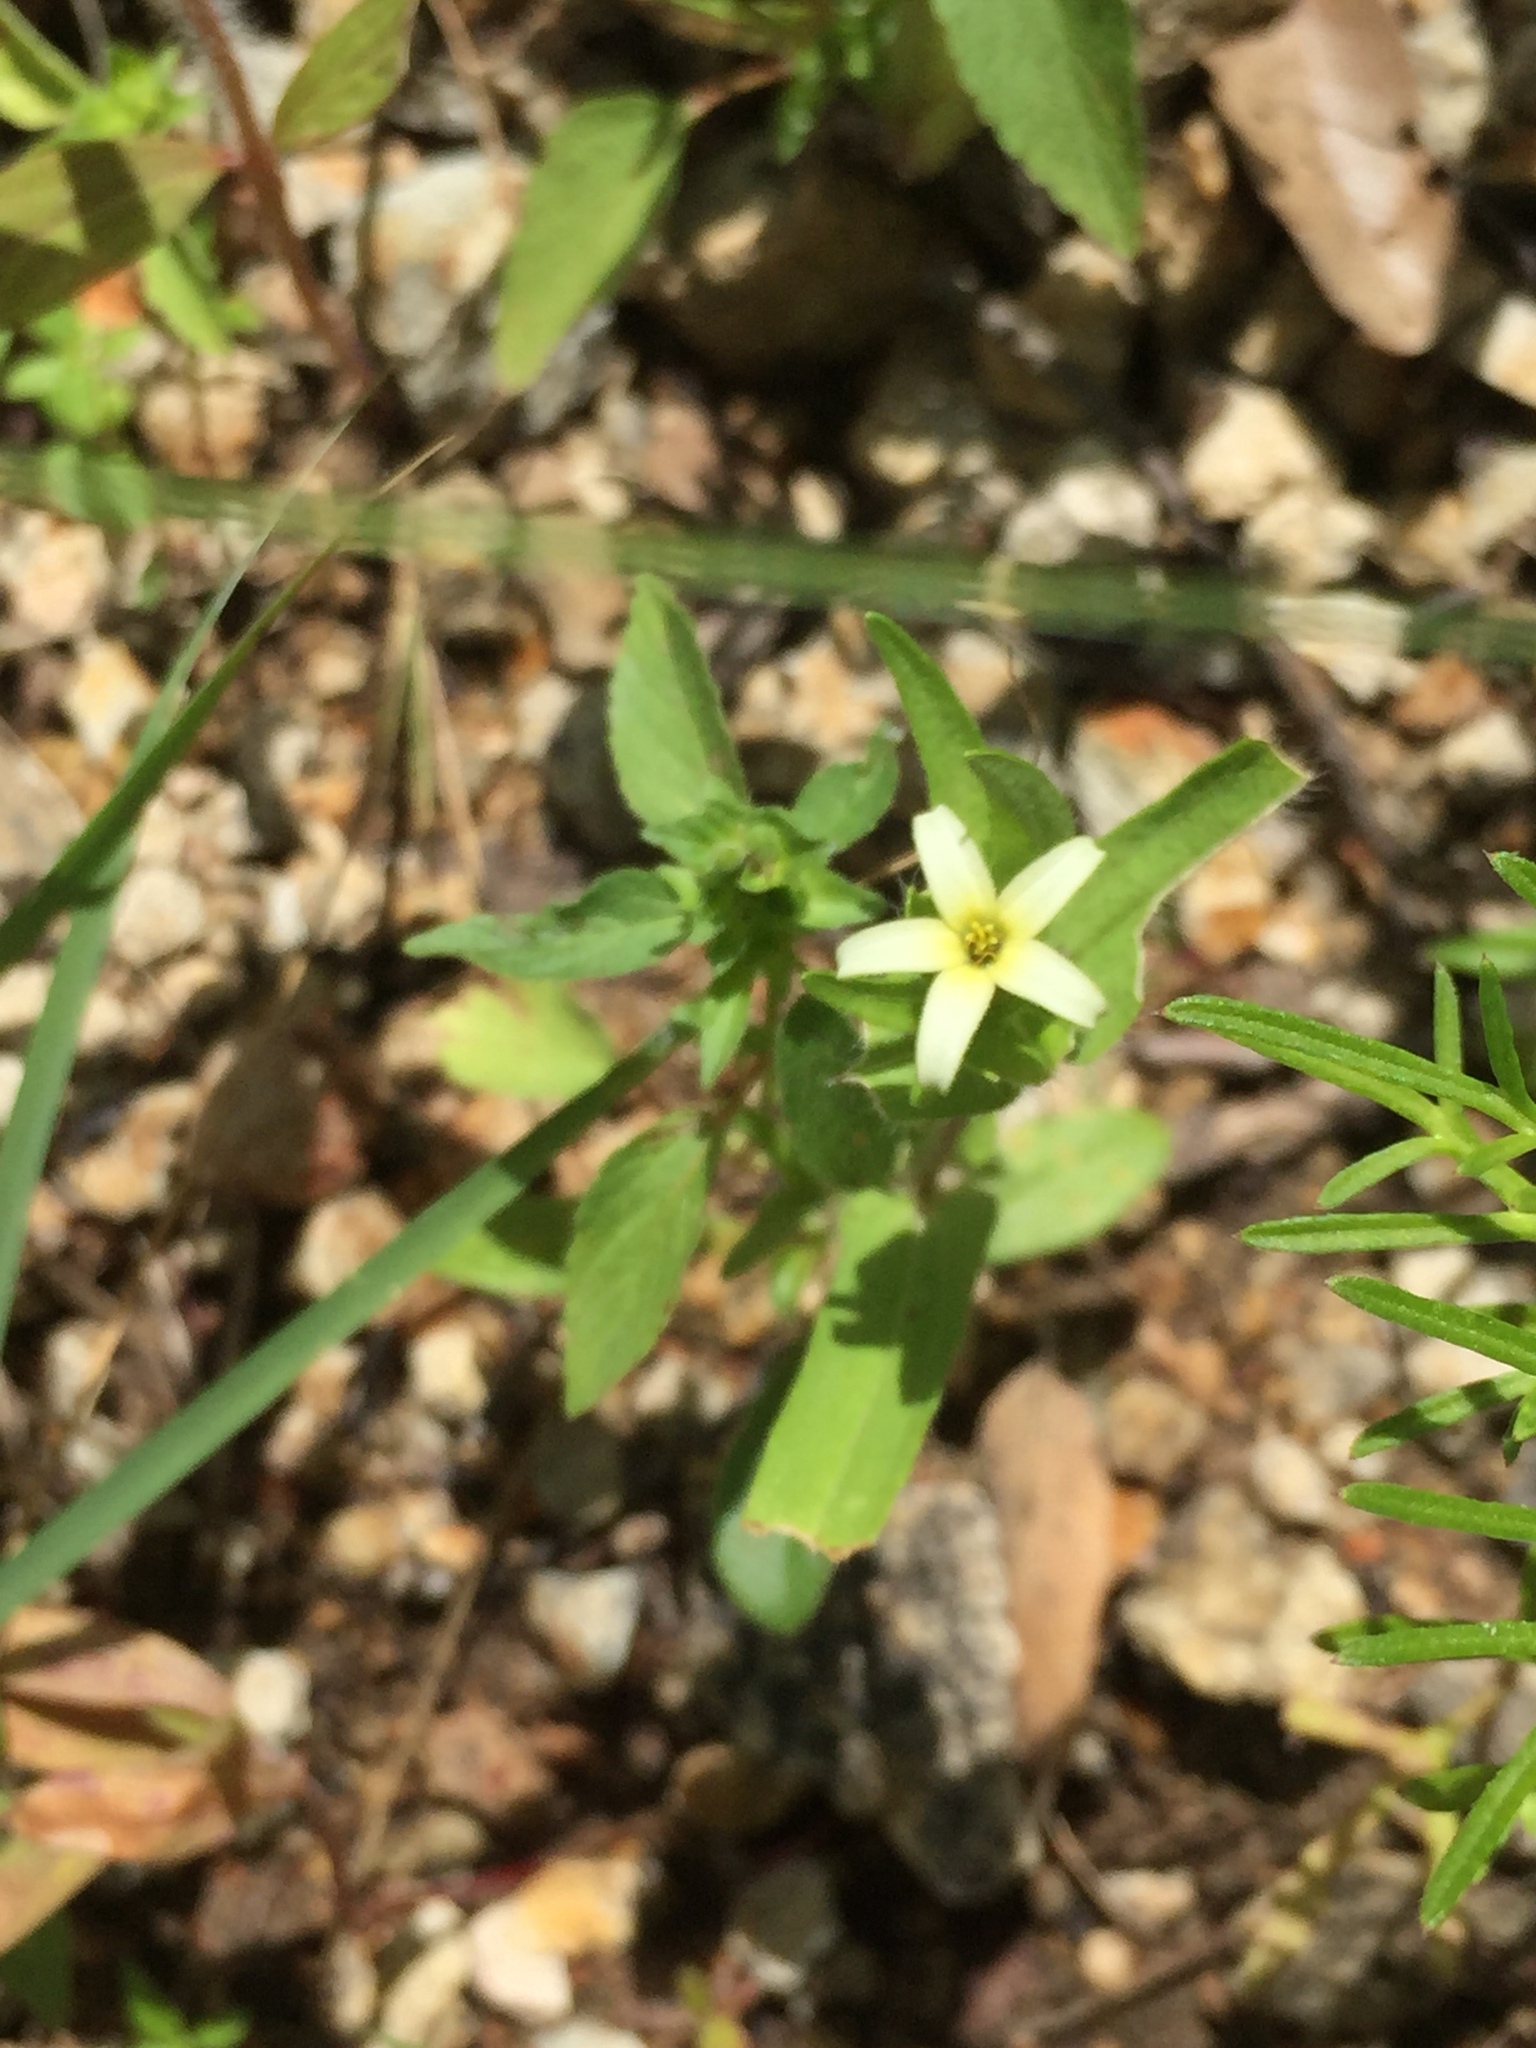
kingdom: Plantae
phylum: Tracheophyta
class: Magnoliopsida
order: Asterales
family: Asteraceae
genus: Zinnia
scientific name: Zinnia zinnioides
